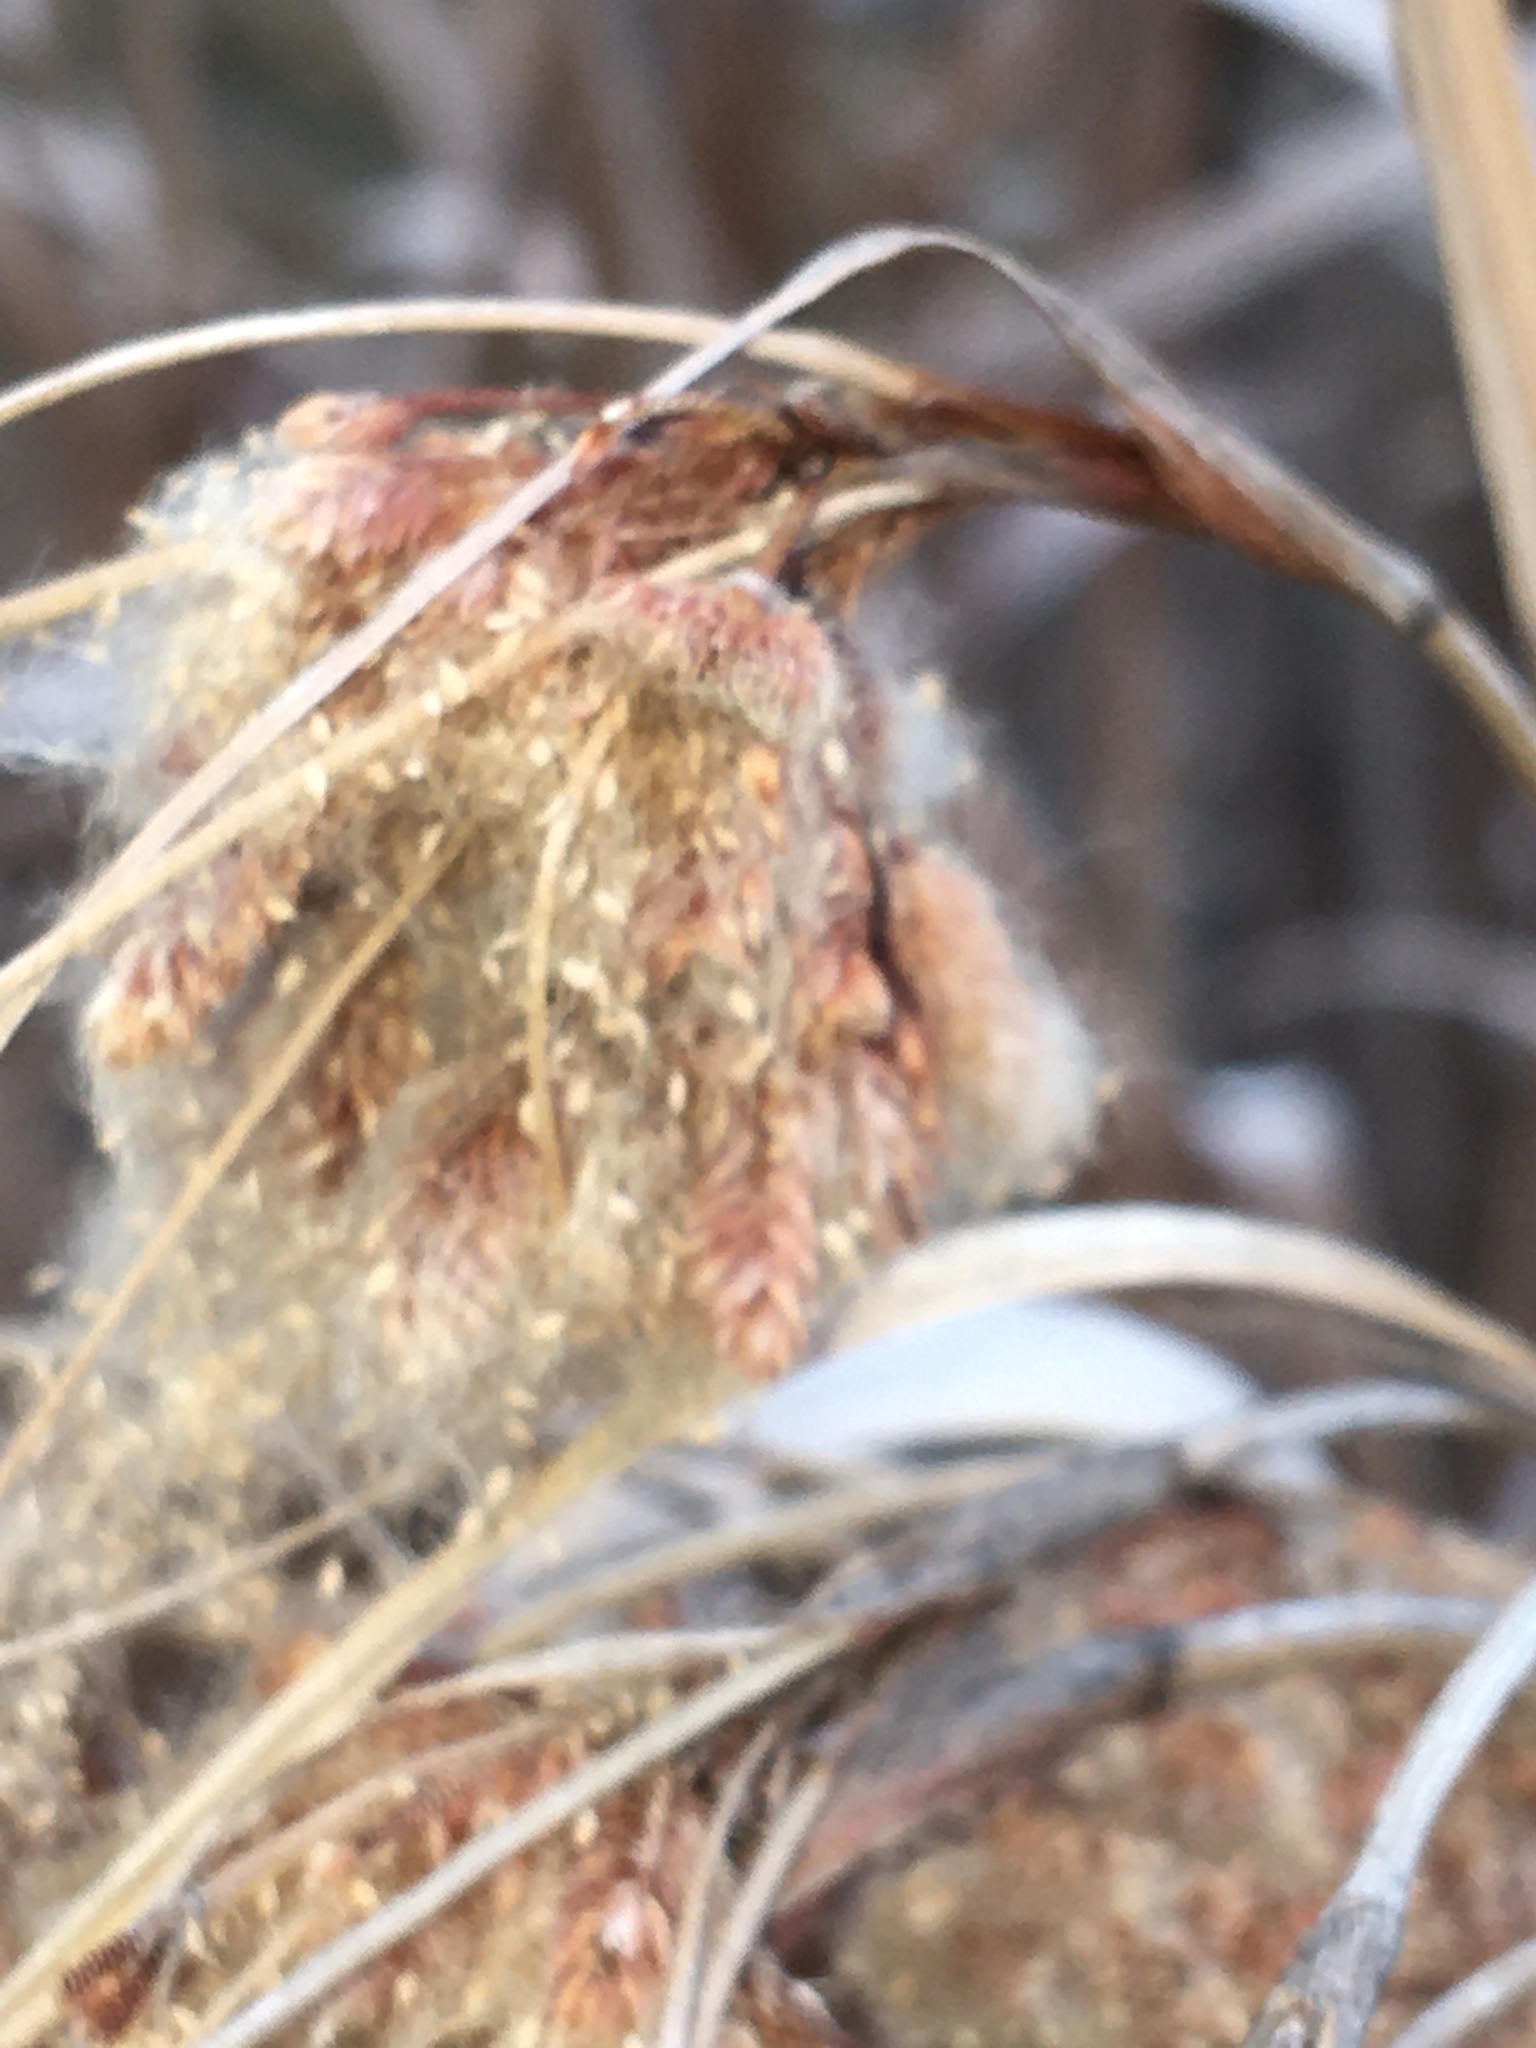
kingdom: Plantae
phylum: Tracheophyta
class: Liliopsida
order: Poales
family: Cyperaceae
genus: Scirpus
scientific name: Scirpus cyperinus
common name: Black-sheathed bulrush
